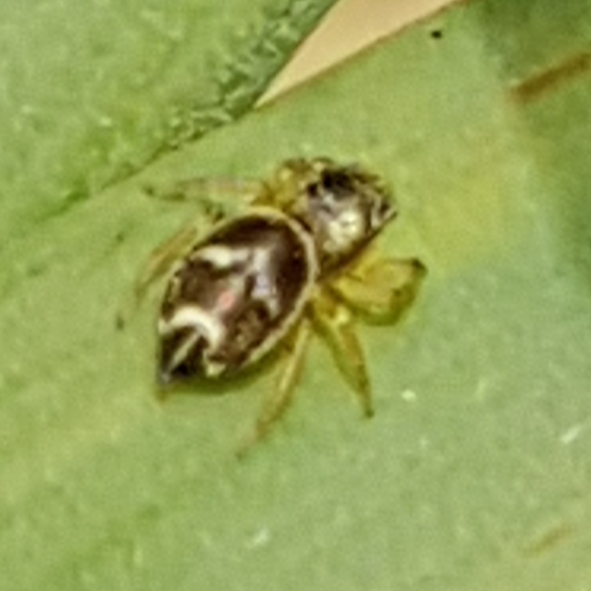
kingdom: Animalia
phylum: Arthropoda
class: Arachnida
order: Araneae
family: Salticidae
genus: Heliophanus
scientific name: Heliophanus tribulosus
